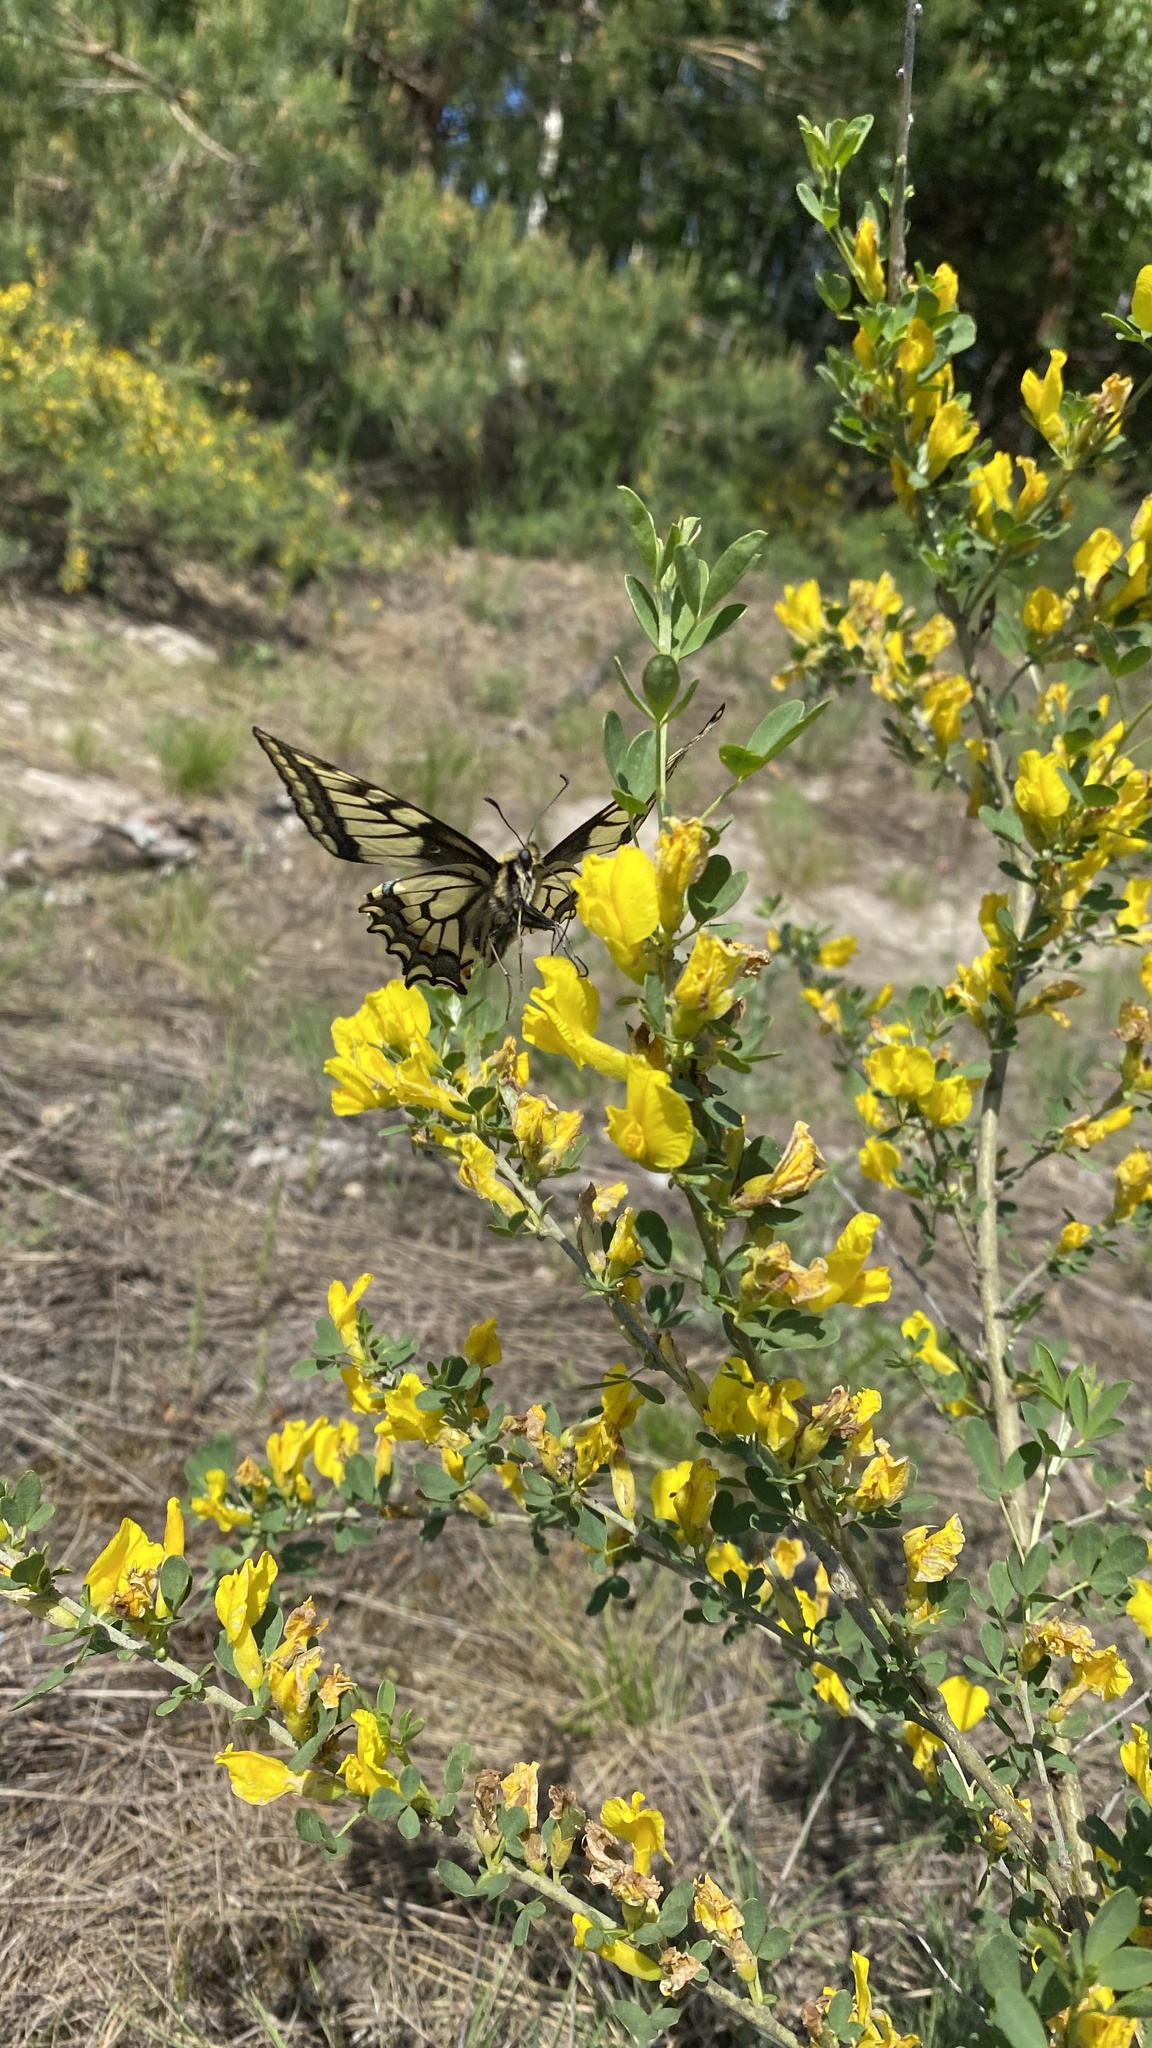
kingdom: Animalia
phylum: Arthropoda
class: Insecta
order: Lepidoptera
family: Papilionidae
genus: Papilio
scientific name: Papilio machaon
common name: Swallowtail
